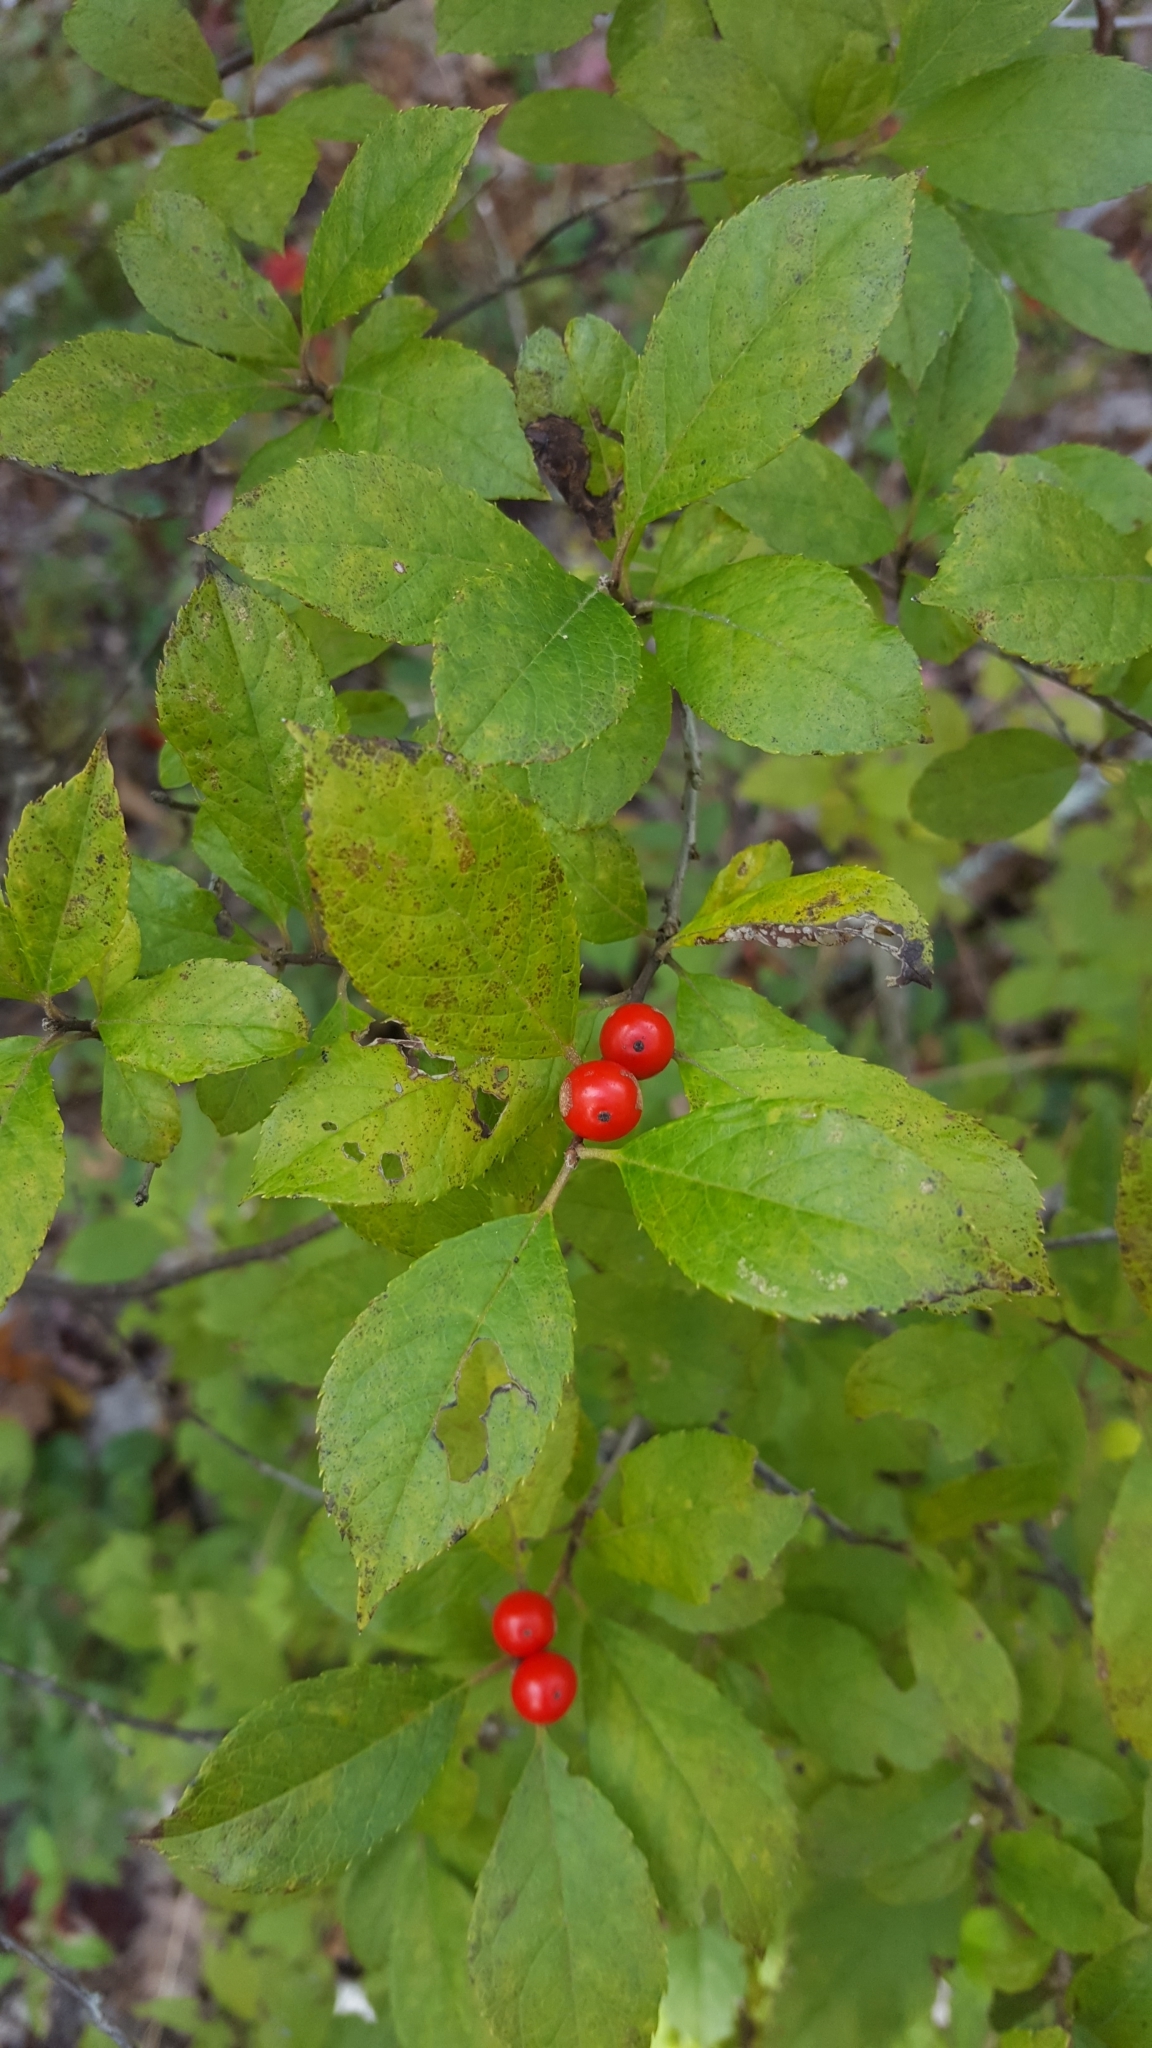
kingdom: Plantae
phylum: Tracheophyta
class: Magnoliopsida
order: Aquifoliales
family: Aquifoliaceae
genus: Ilex
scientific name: Ilex verticillata
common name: Virginia winterberry
